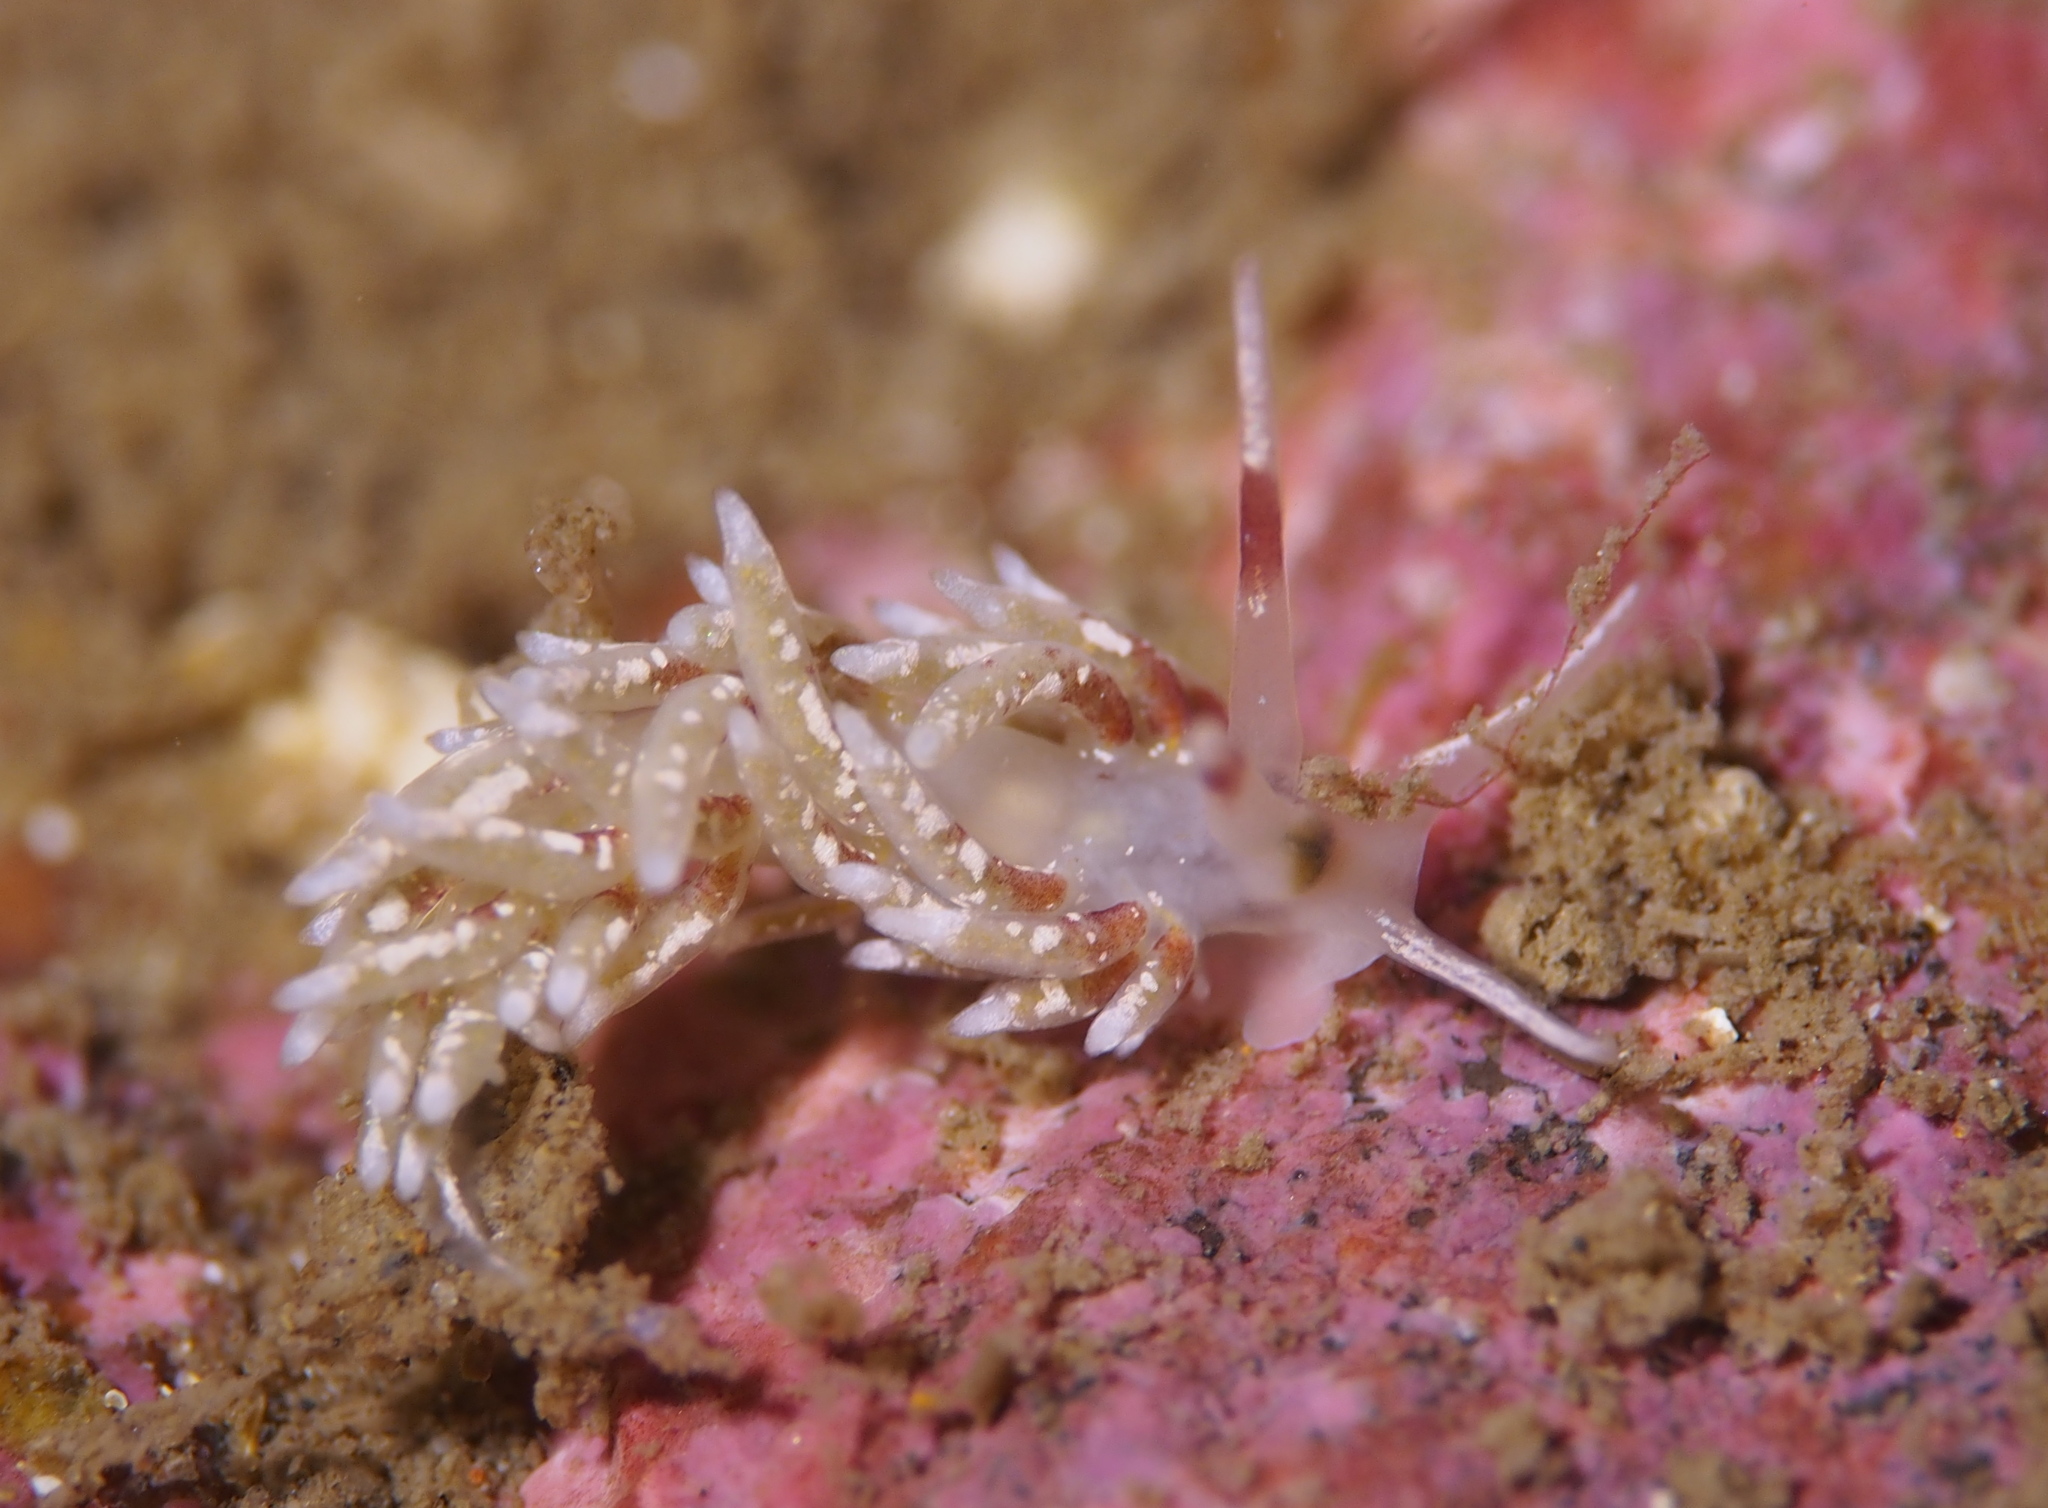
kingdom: Animalia
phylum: Mollusca
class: Gastropoda
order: Nudibranchia
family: Trinchesiidae
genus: Rubramoena
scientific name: Rubramoena rubescens
